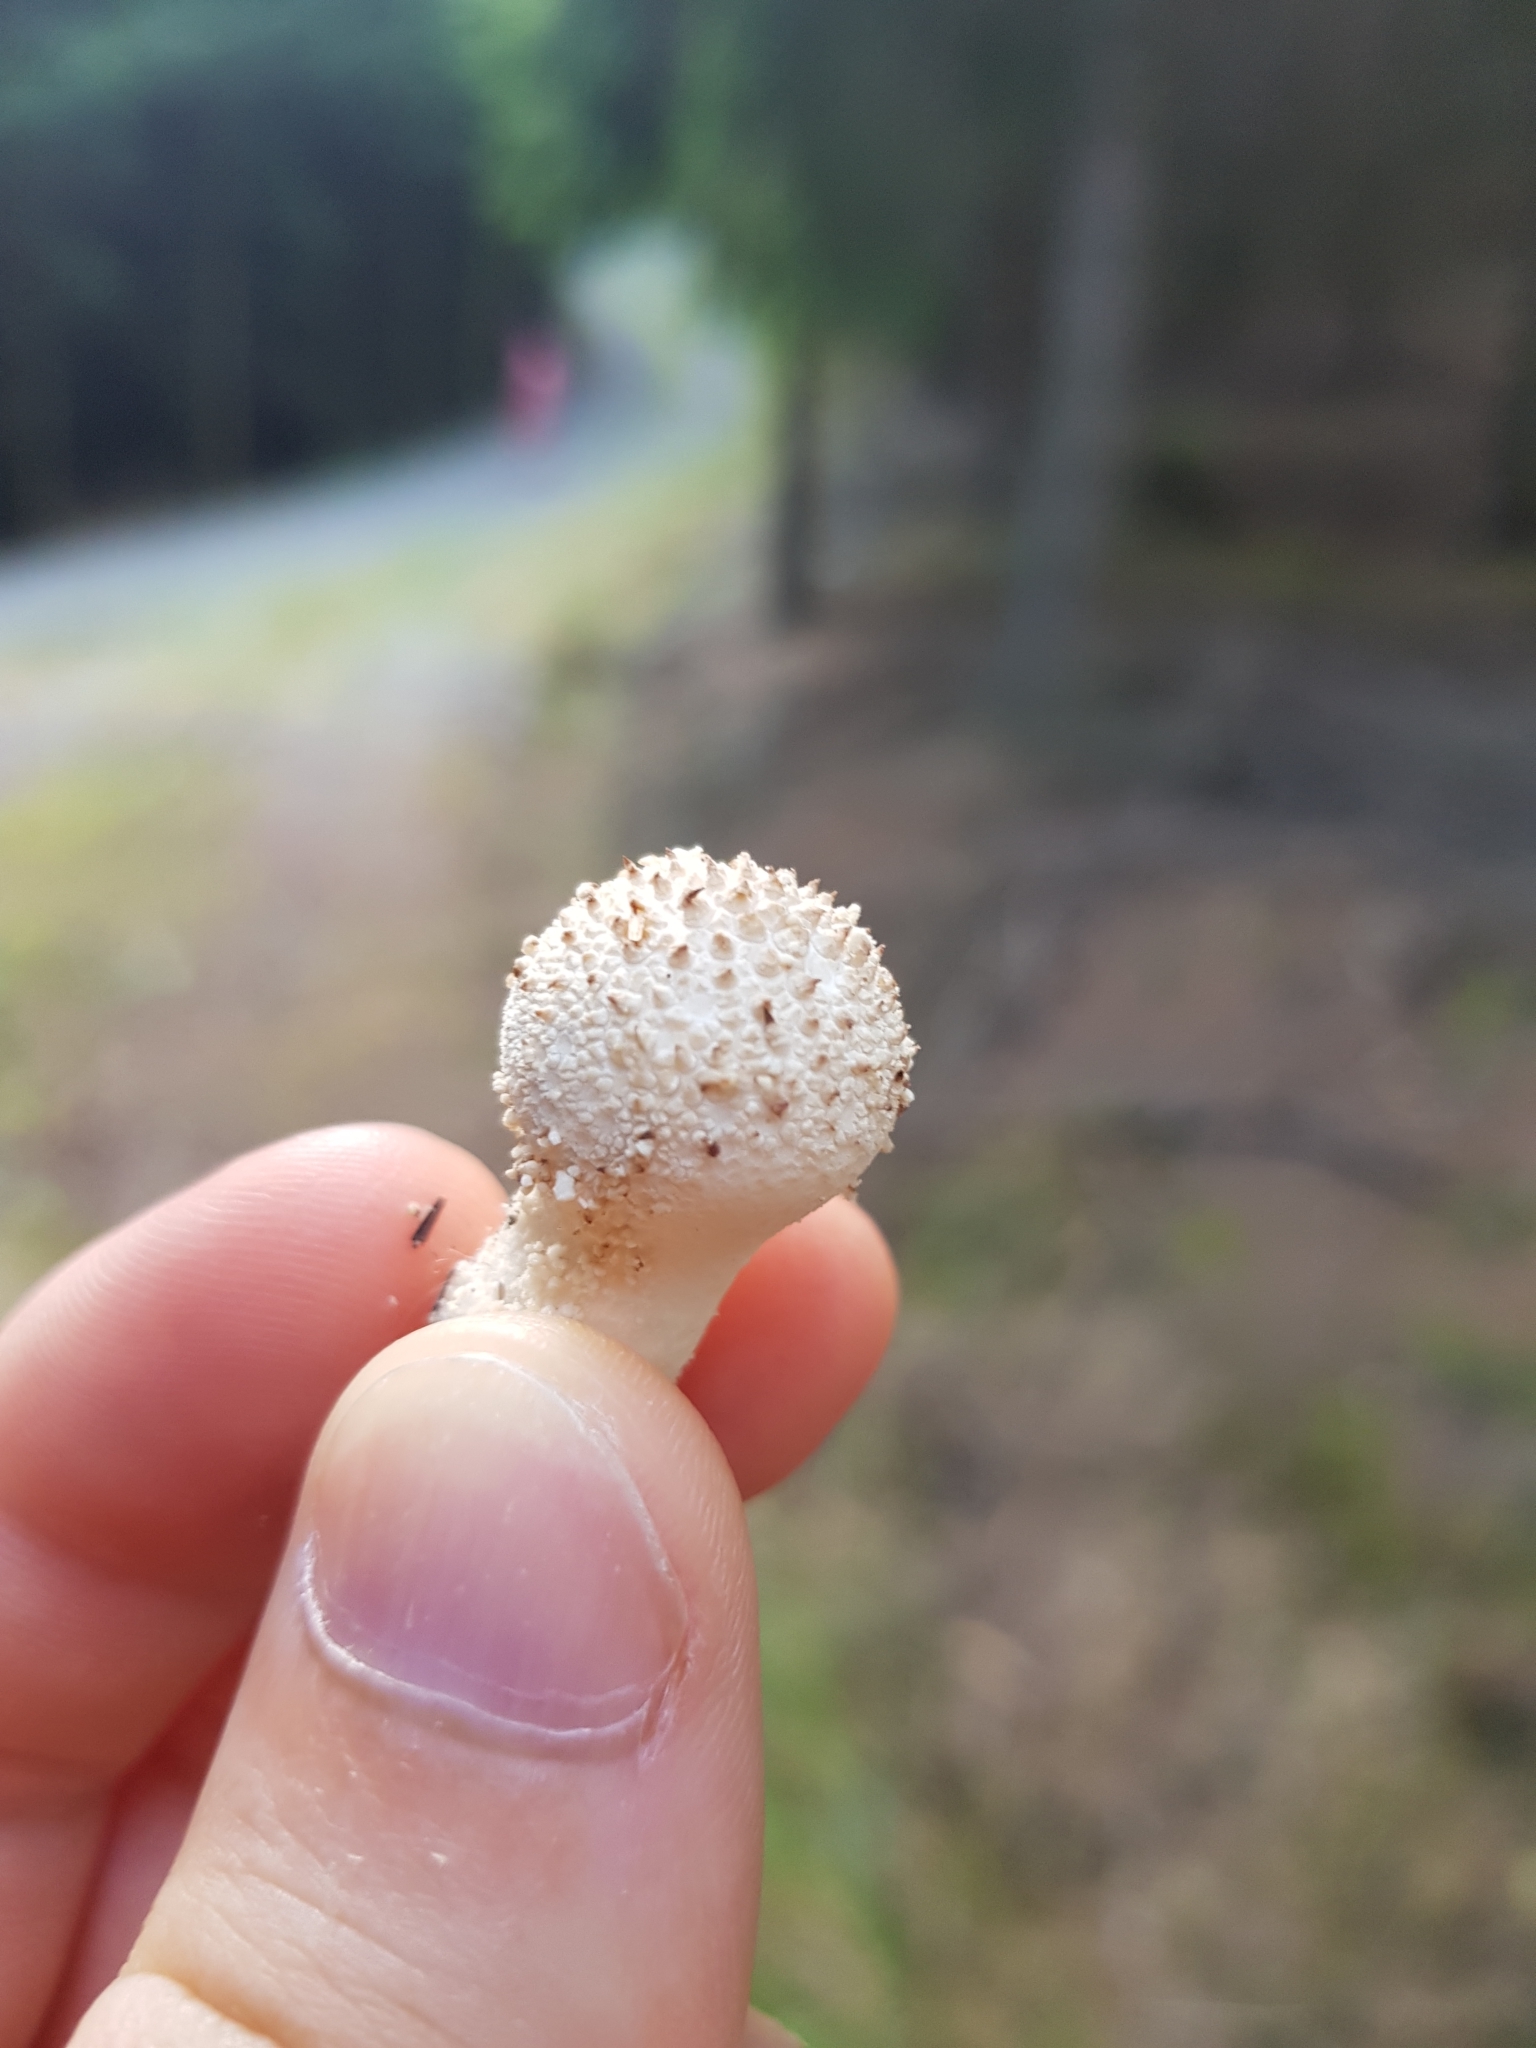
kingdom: Fungi
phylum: Basidiomycota
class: Agaricomycetes
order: Agaricales
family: Lycoperdaceae
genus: Lycoperdon
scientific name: Lycoperdon perlatum
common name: Common puffball
